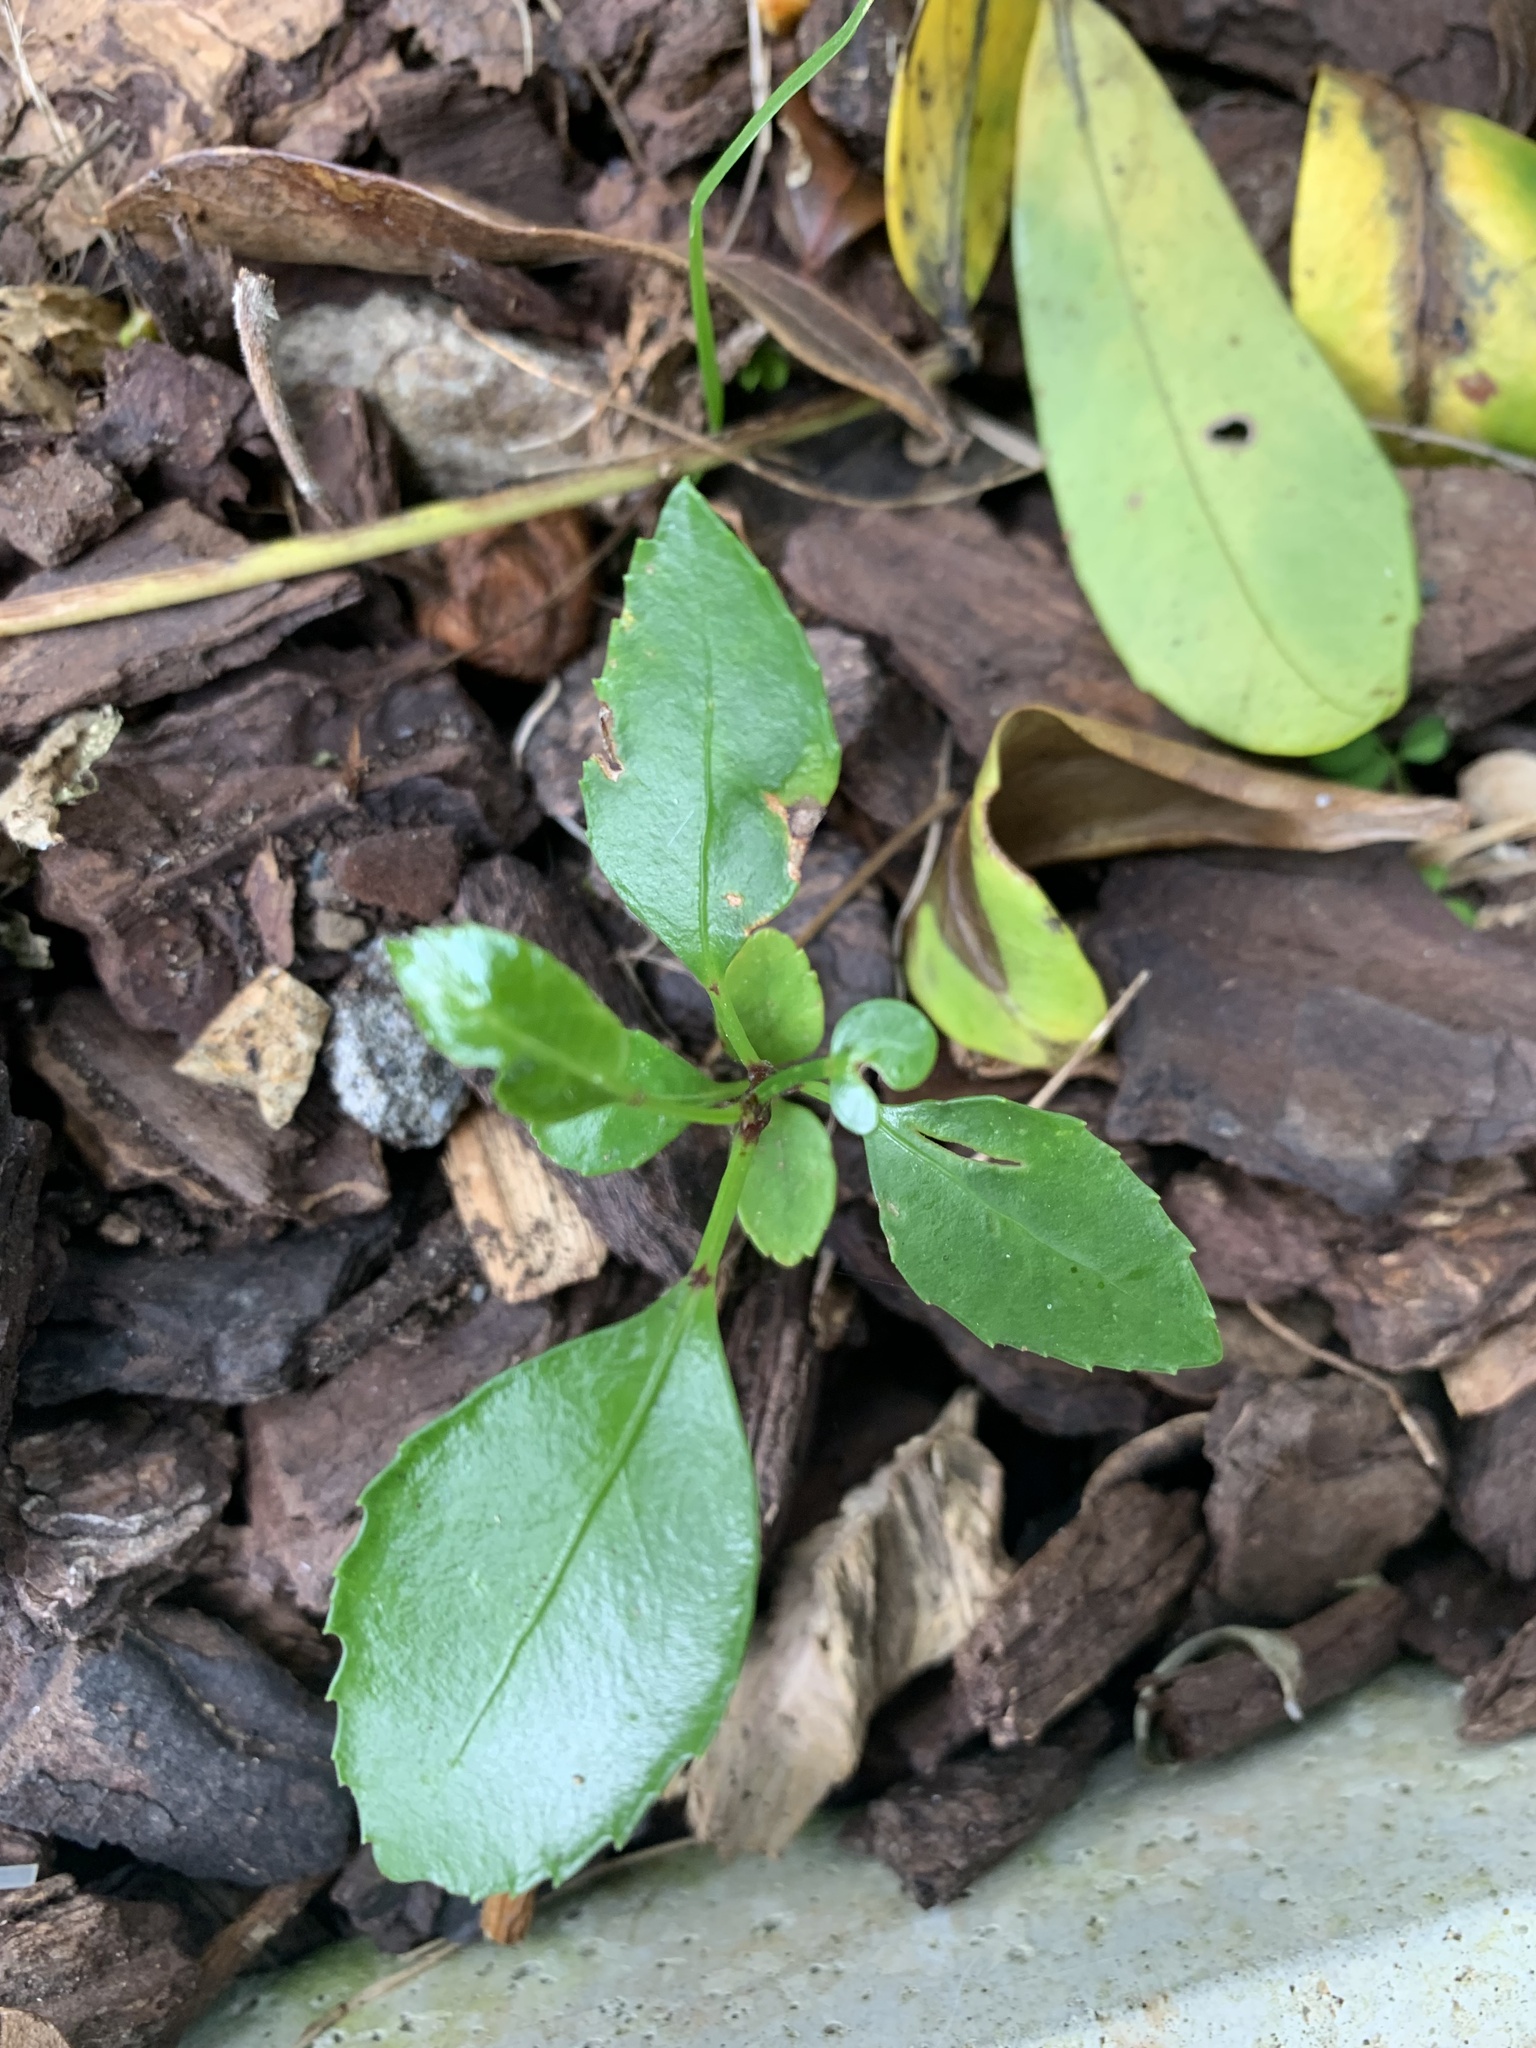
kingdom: Plantae
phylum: Tracheophyta
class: Magnoliopsida
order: Malpighiales
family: Violaceae
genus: Melicytus
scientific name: Melicytus ramiflorus
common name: Mahoe
